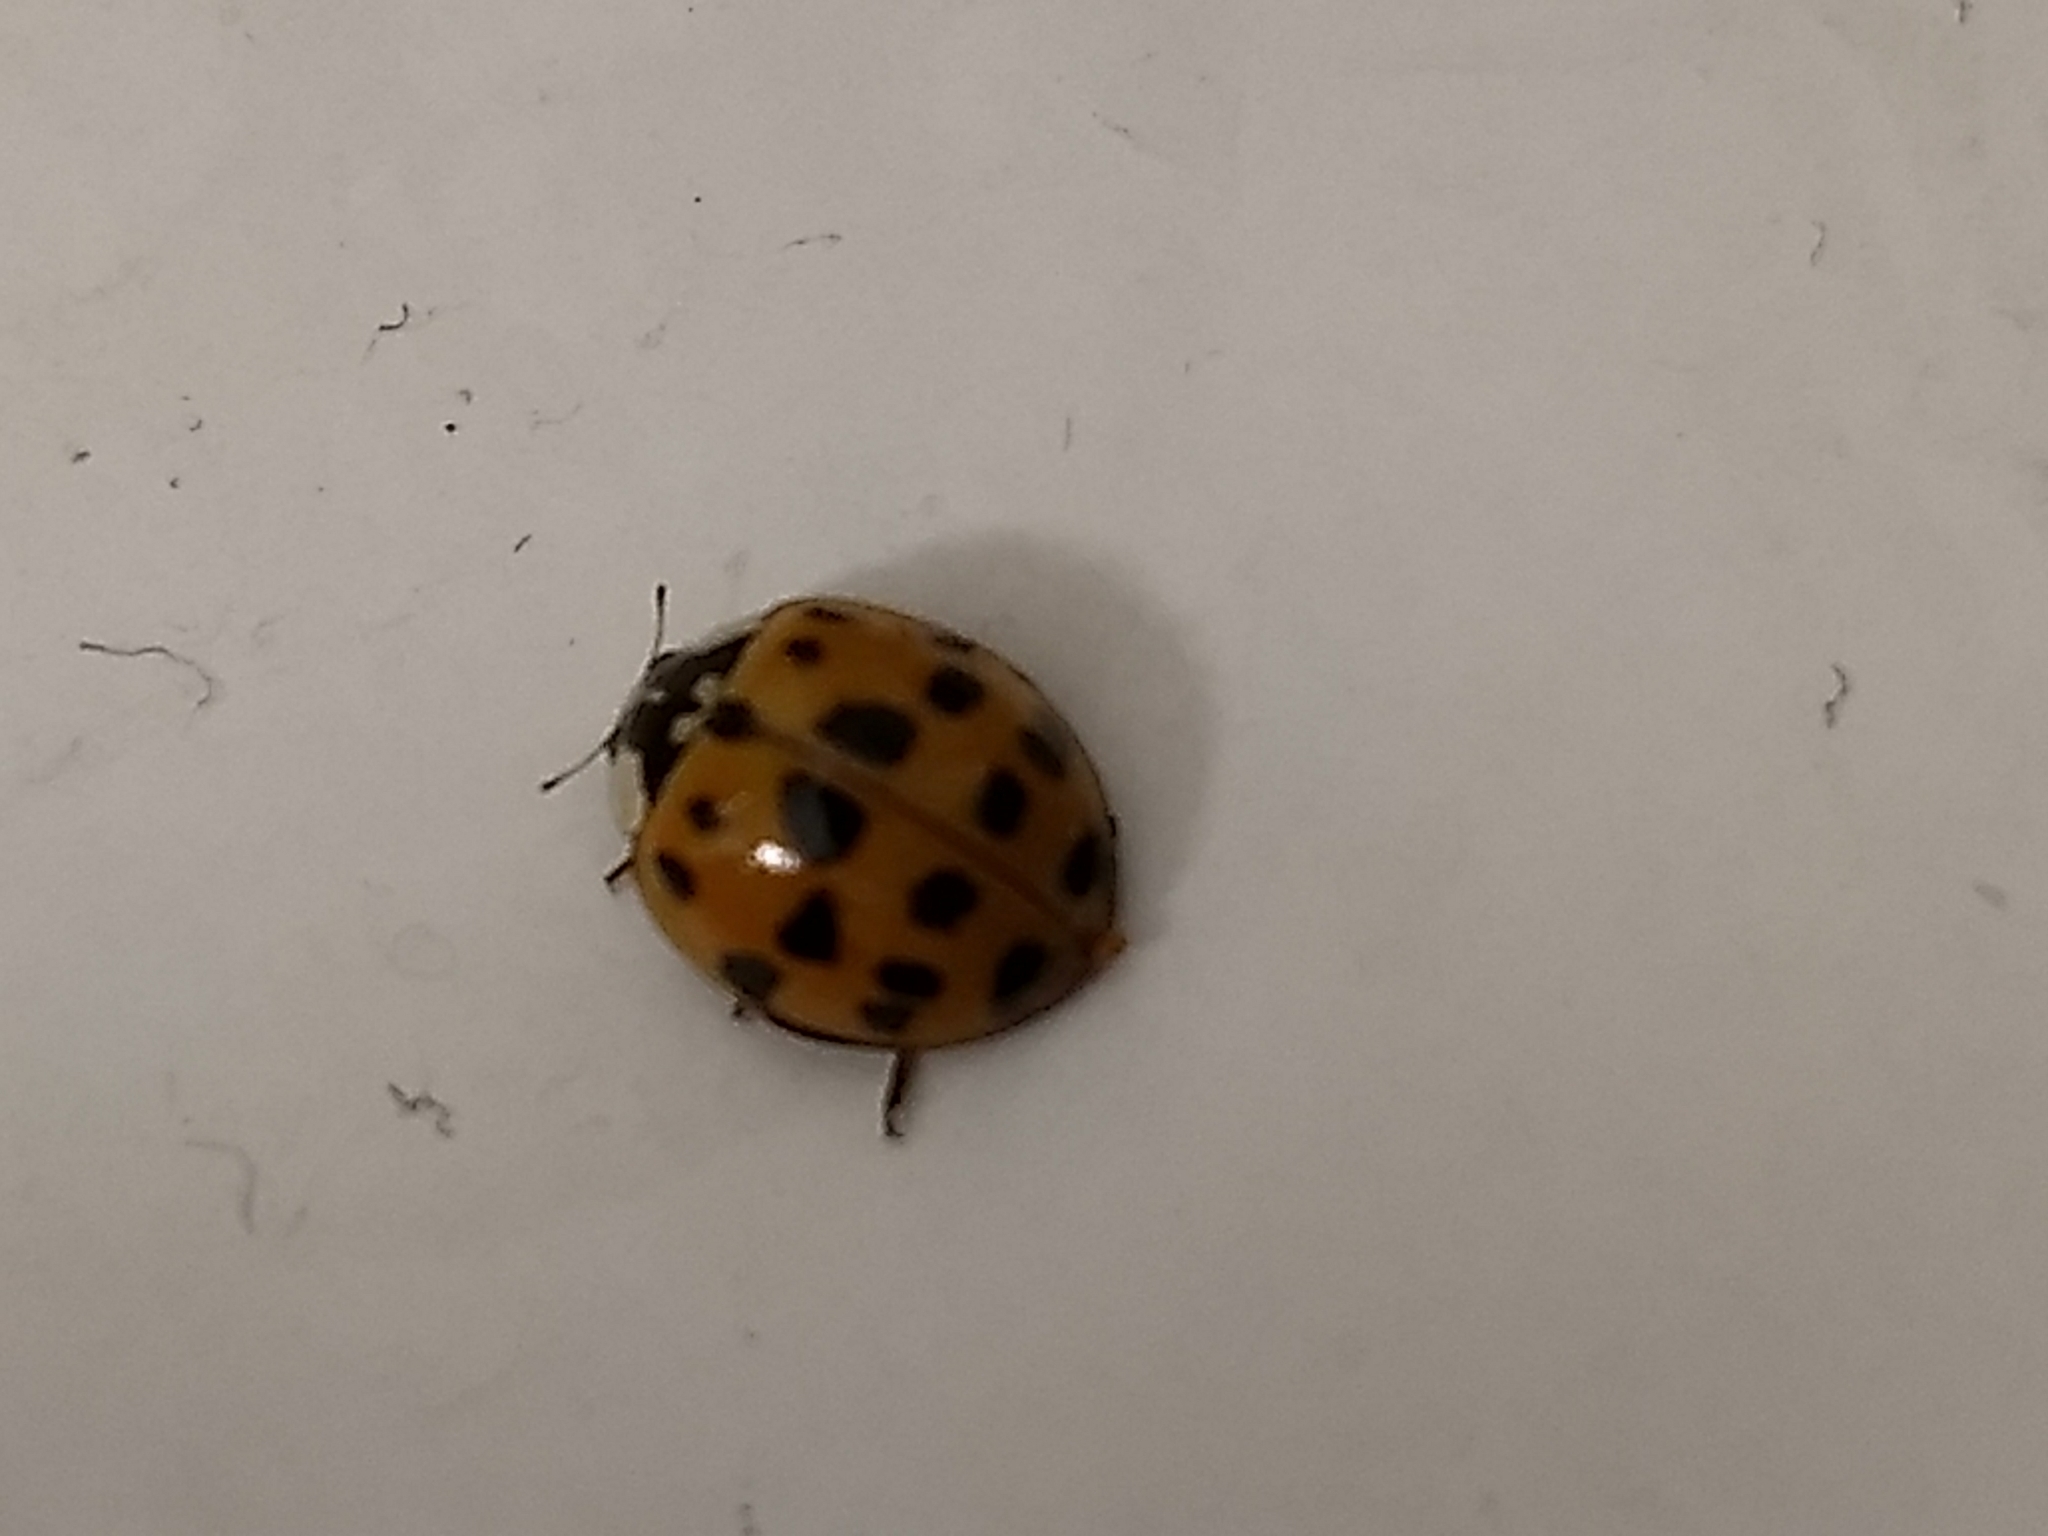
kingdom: Animalia
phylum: Arthropoda
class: Insecta
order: Coleoptera
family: Coccinellidae
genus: Harmonia
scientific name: Harmonia axyridis
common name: Harlequin ladybird
